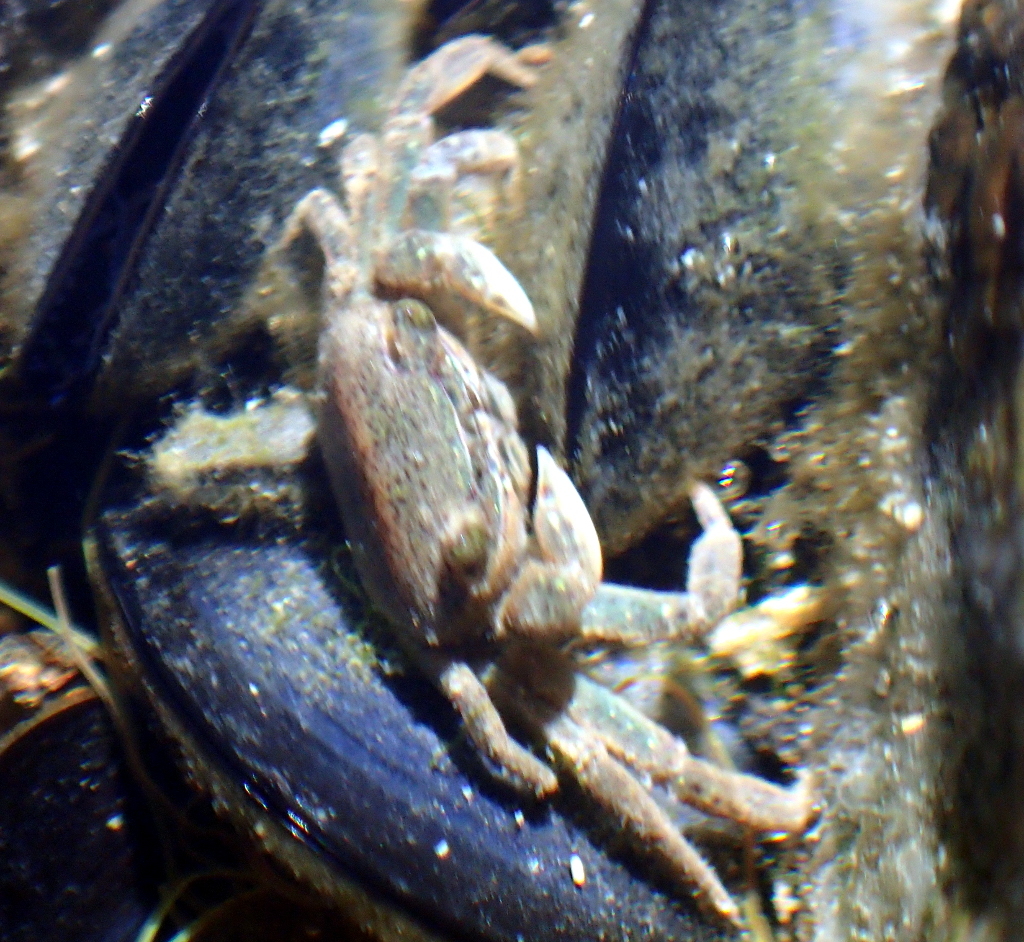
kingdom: Animalia
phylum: Arthropoda
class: Malacostraca
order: Decapoda
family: Varunidae
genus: Cyclograpsus
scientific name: Cyclograpsus lavauxi
